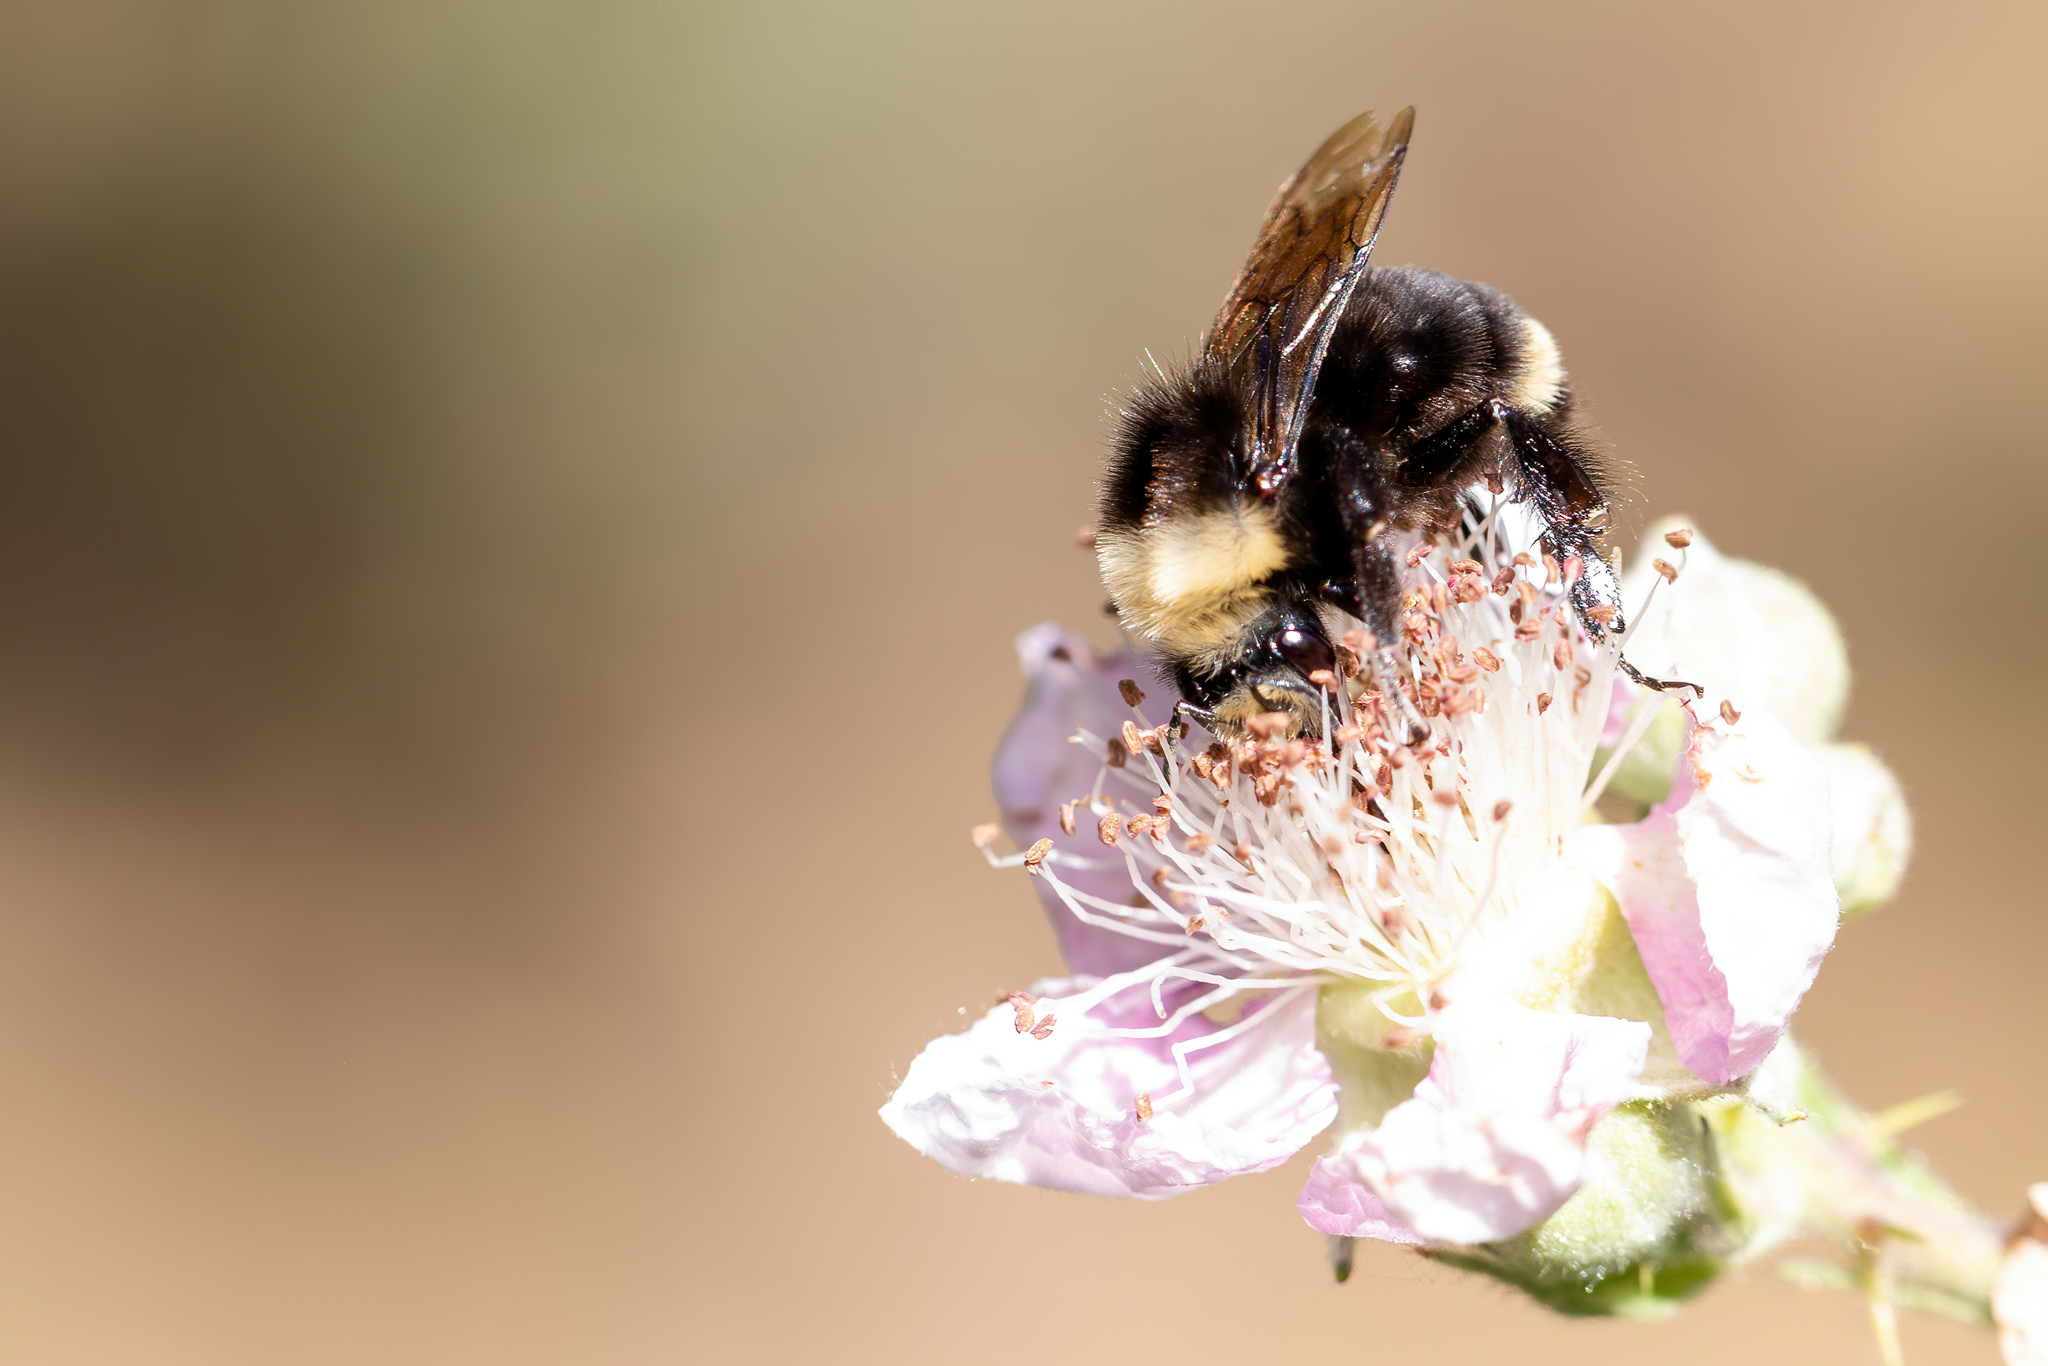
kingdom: Animalia
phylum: Arthropoda
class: Insecta
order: Hymenoptera
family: Apidae
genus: Bombus
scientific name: Bombus vosnesenskii
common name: Vosnesensky bumble bee
